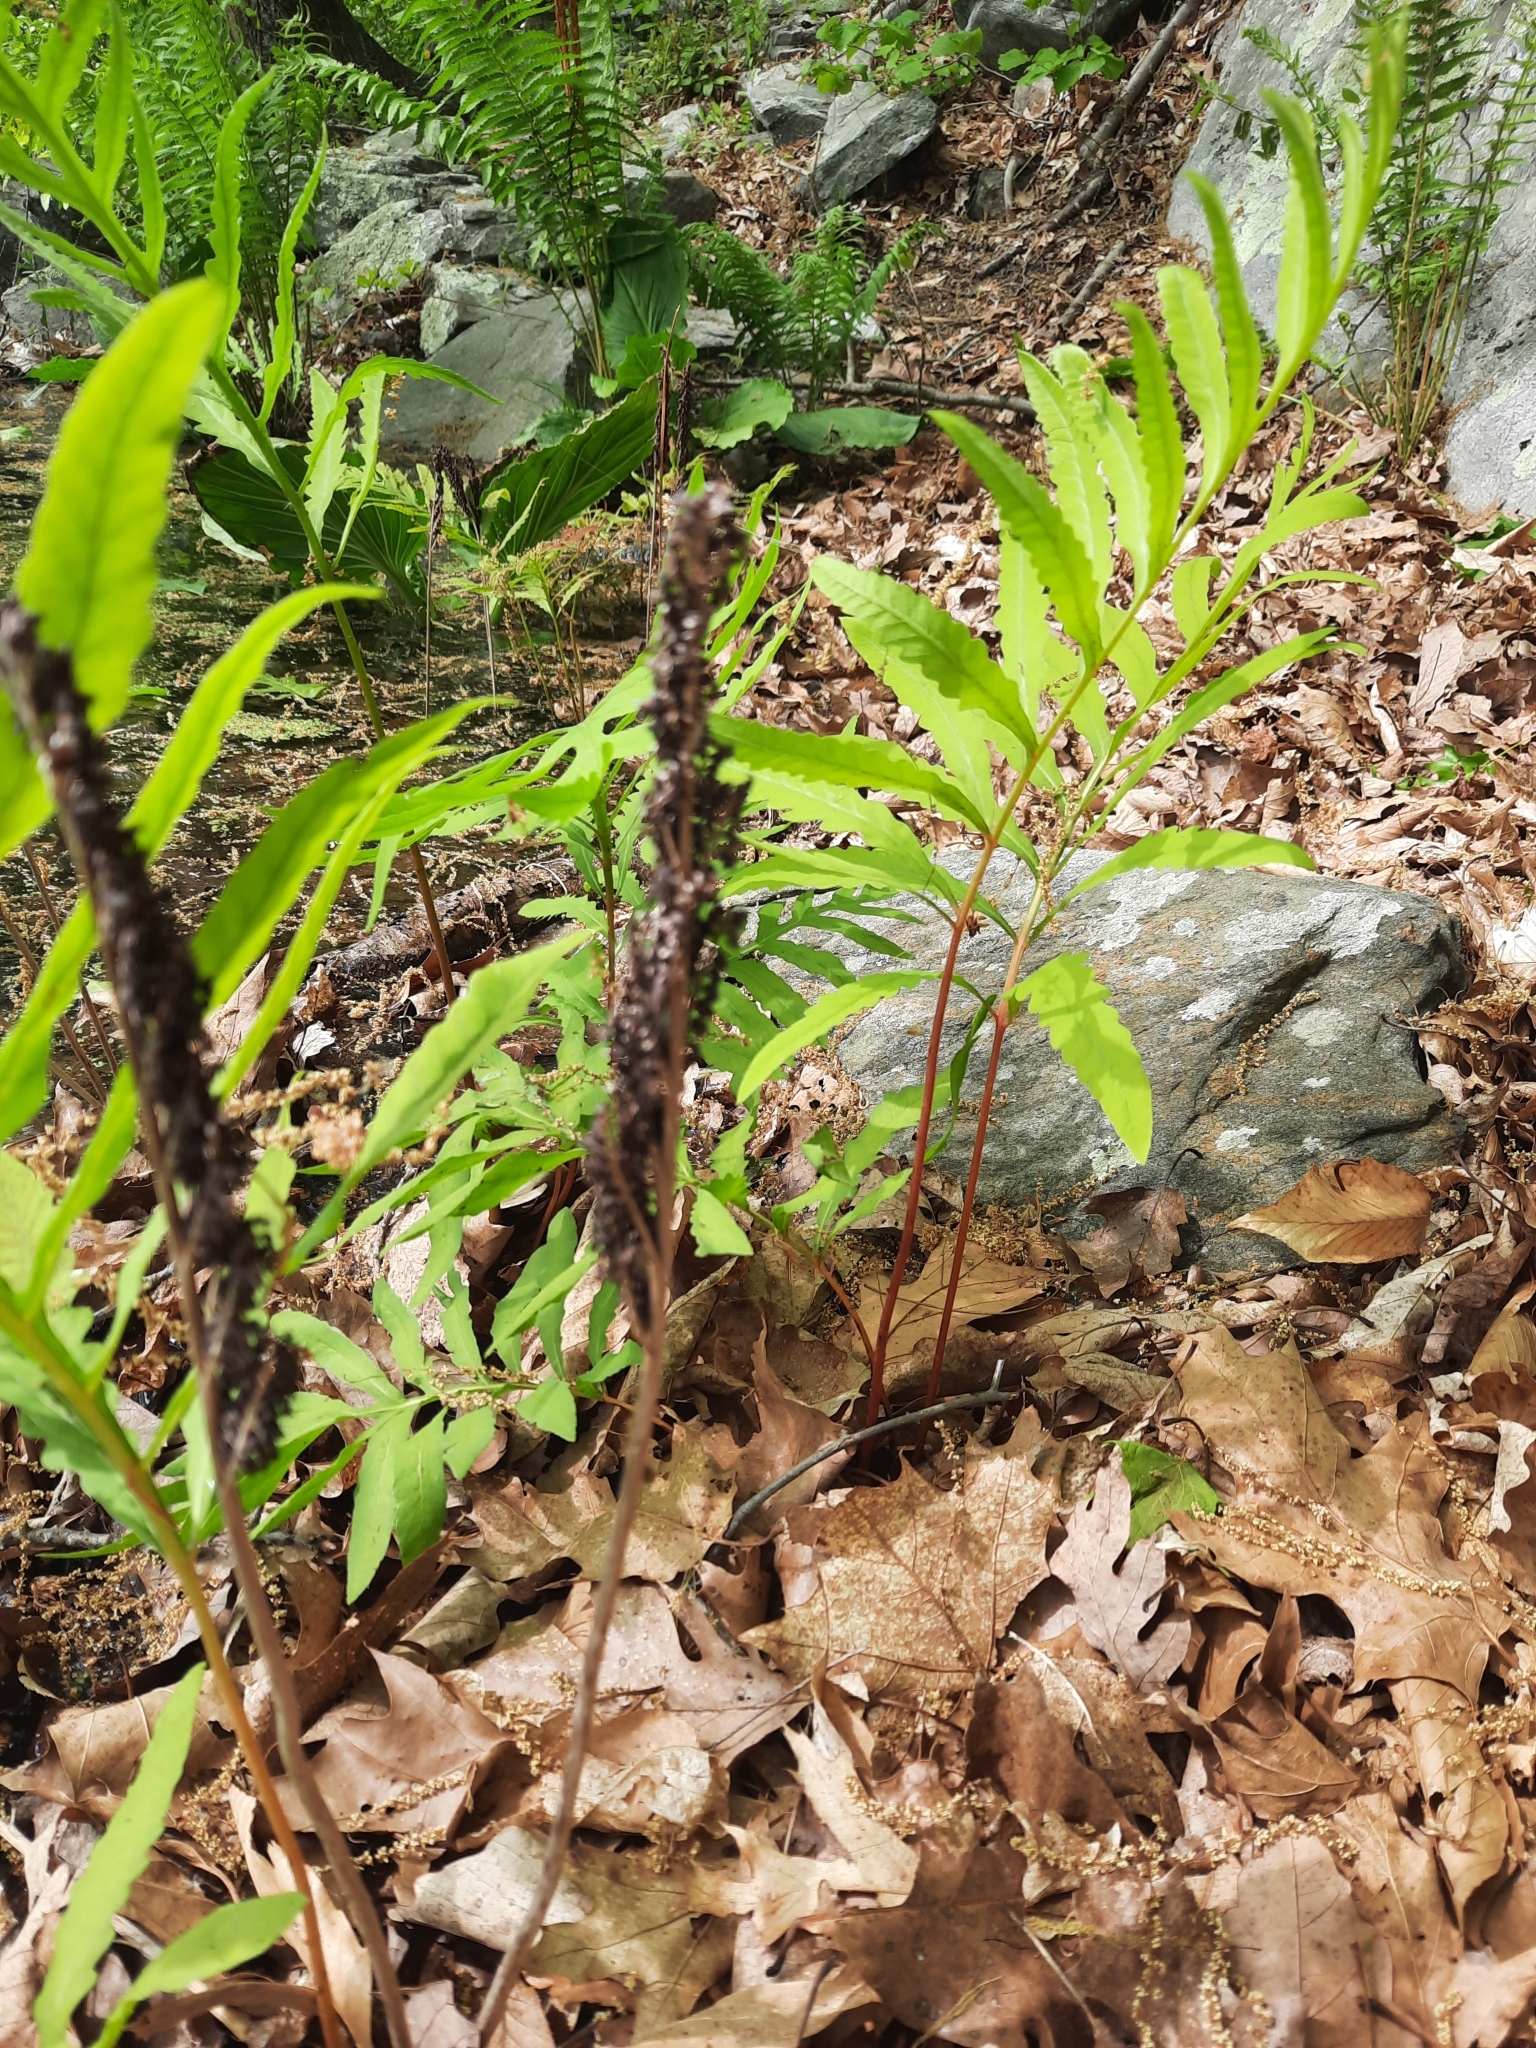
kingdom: Plantae
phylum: Tracheophyta
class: Polypodiopsida
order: Polypodiales
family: Onocleaceae
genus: Onoclea
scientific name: Onoclea sensibilis
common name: Sensitive fern
